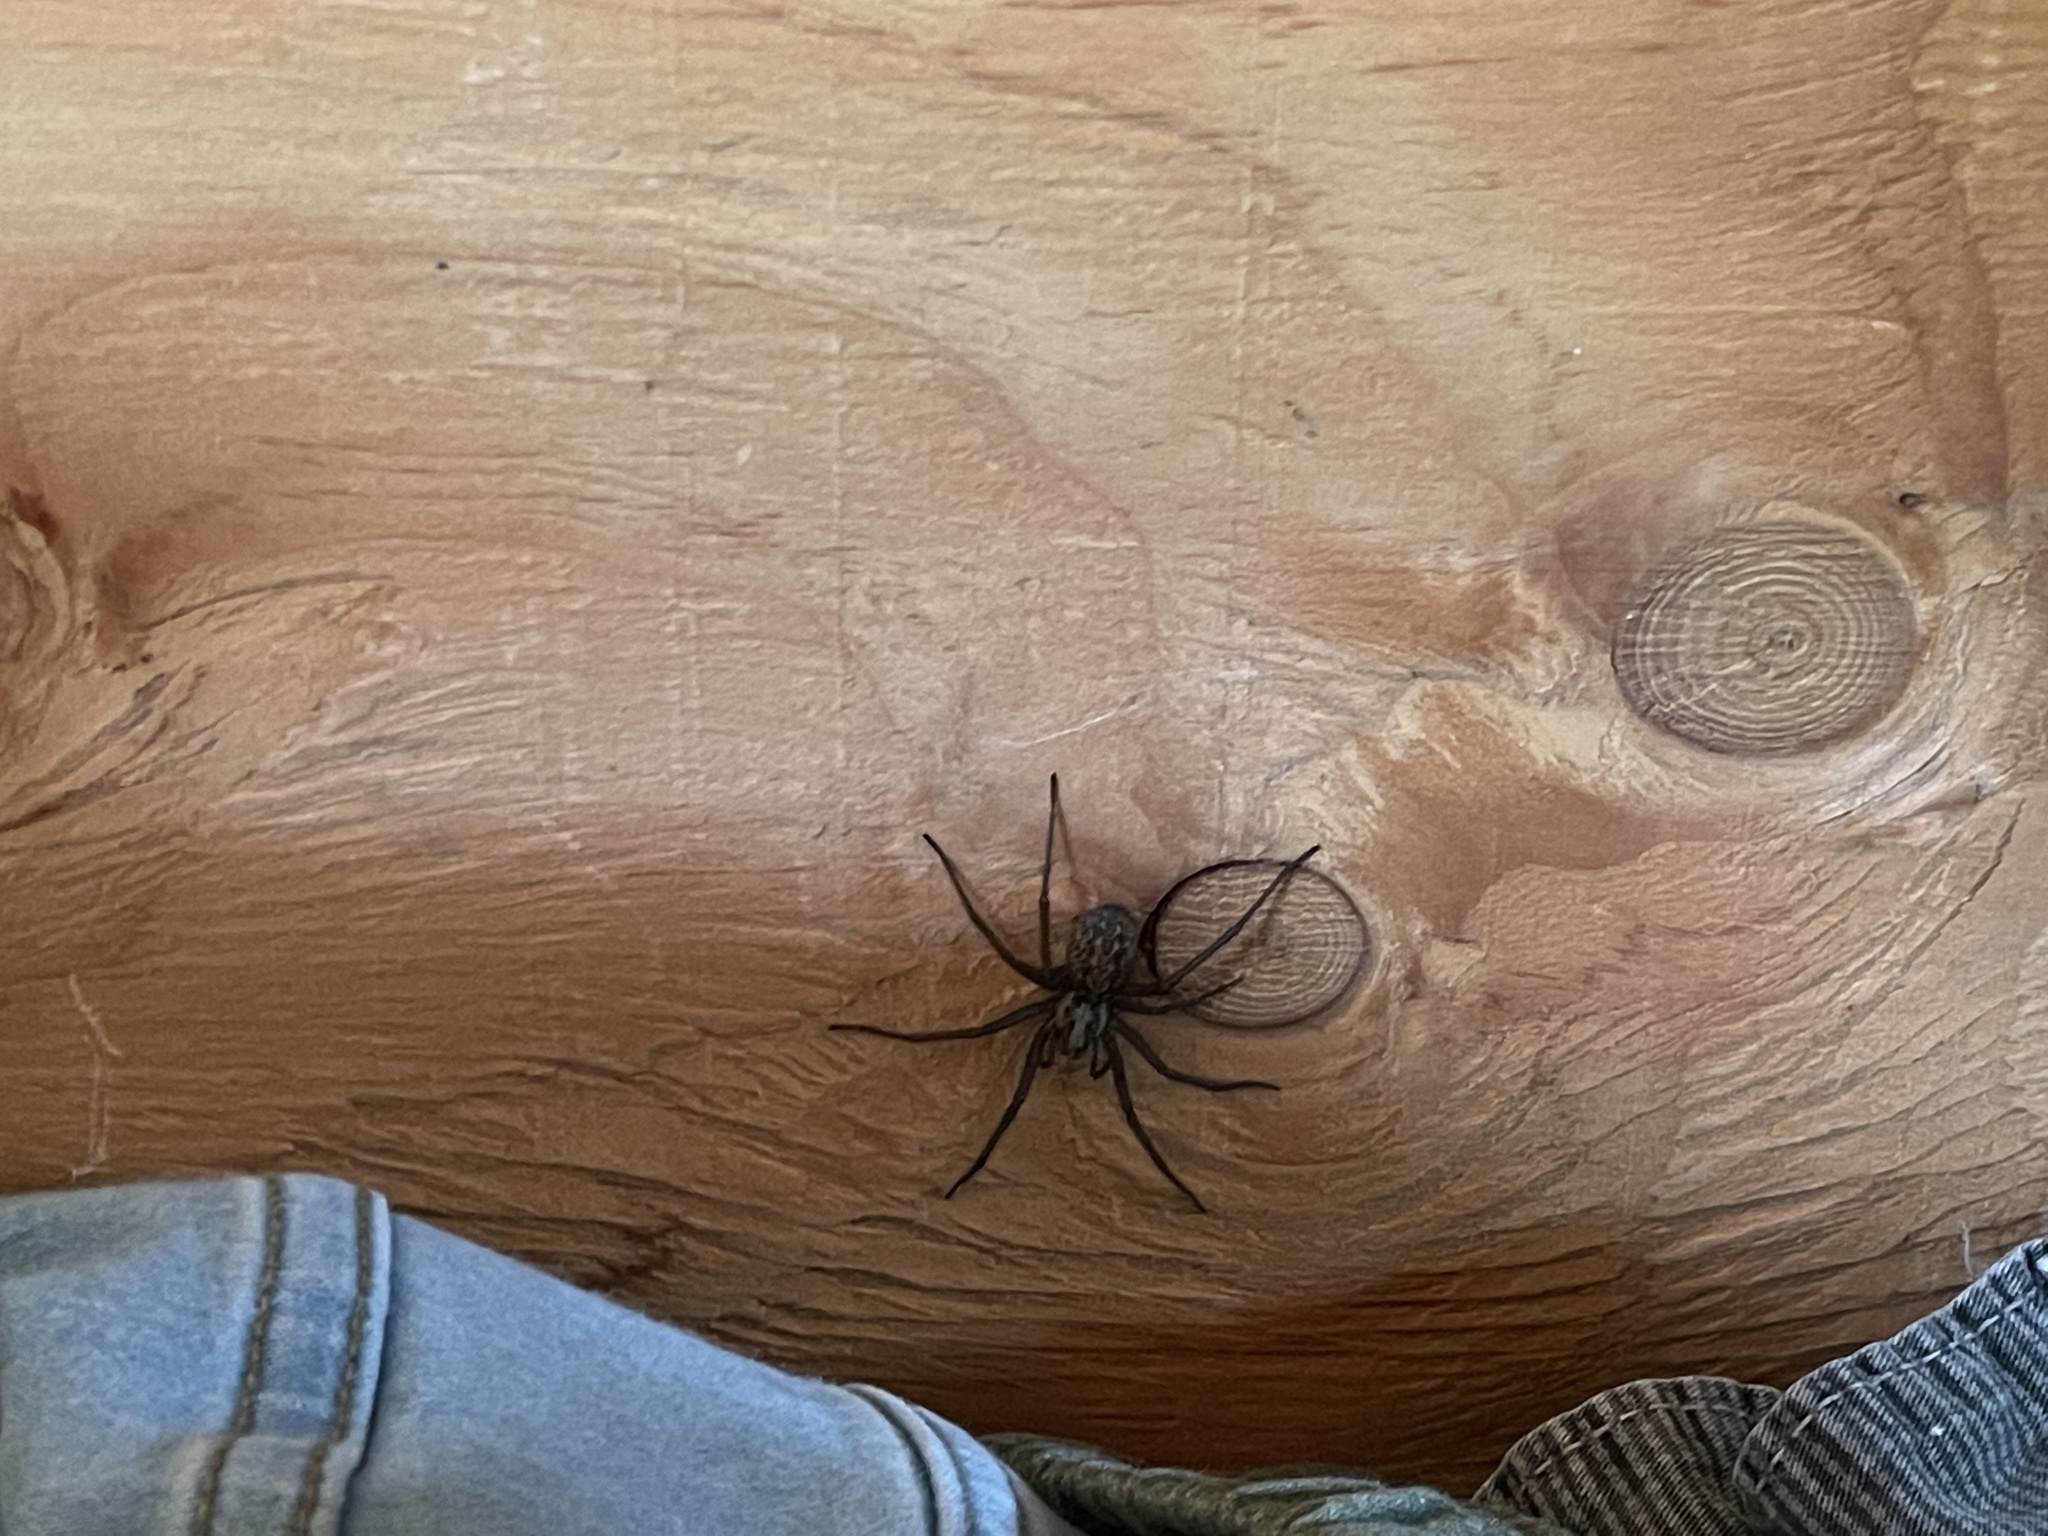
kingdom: Animalia
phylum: Arthropoda
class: Arachnida
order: Araneae
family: Agelenidae
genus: Eratigena
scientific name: Eratigena duellica
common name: Giant house spider
